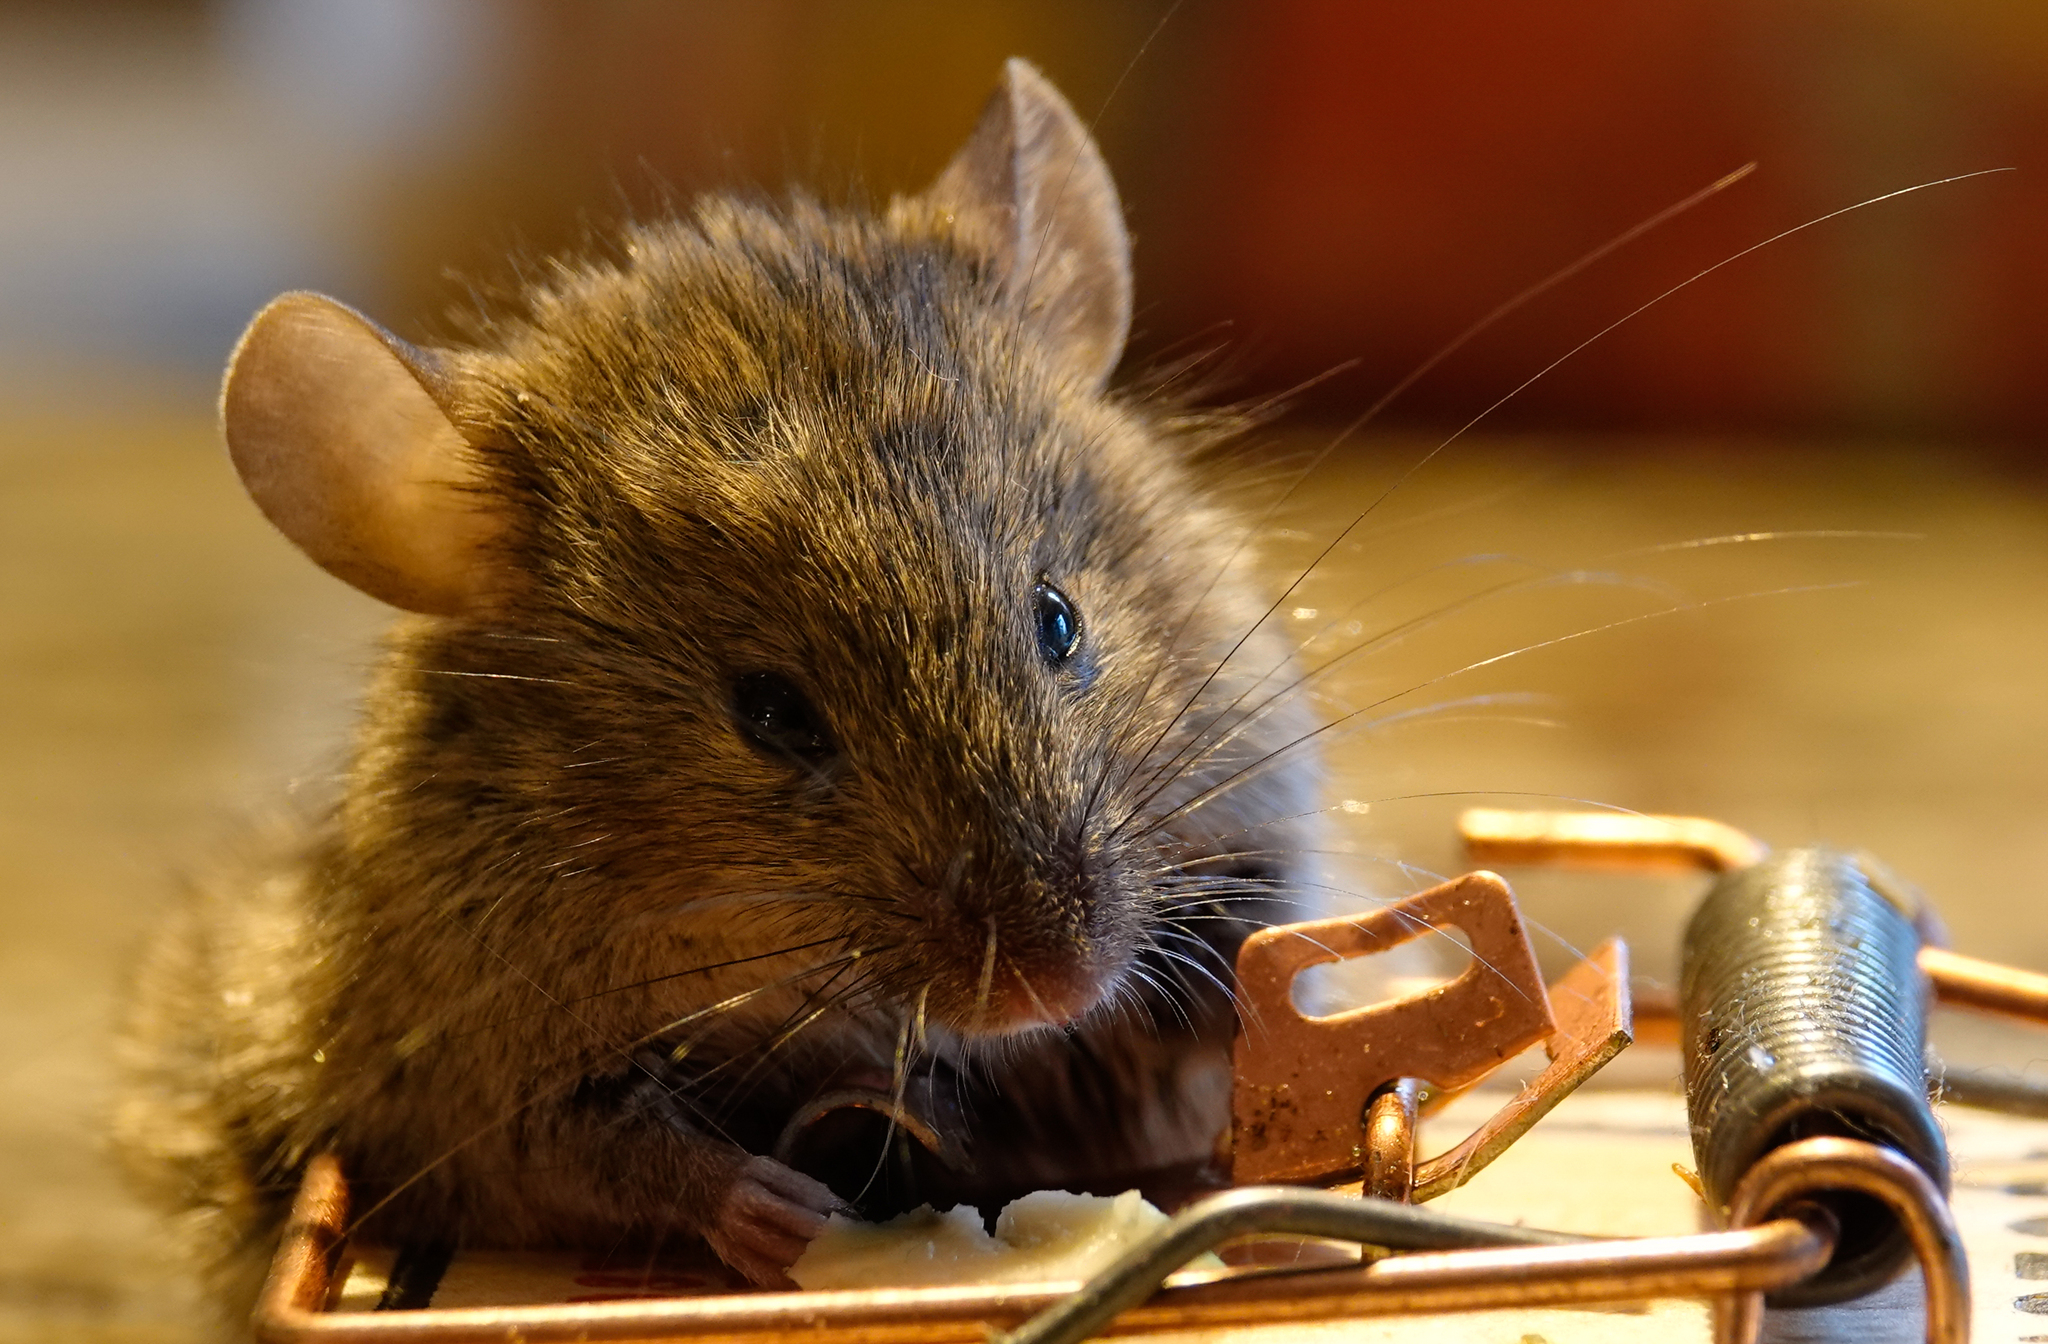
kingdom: Animalia
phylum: Chordata
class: Mammalia
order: Rodentia
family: Muridae
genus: Mus
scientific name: Mus musculus
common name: House mouse
